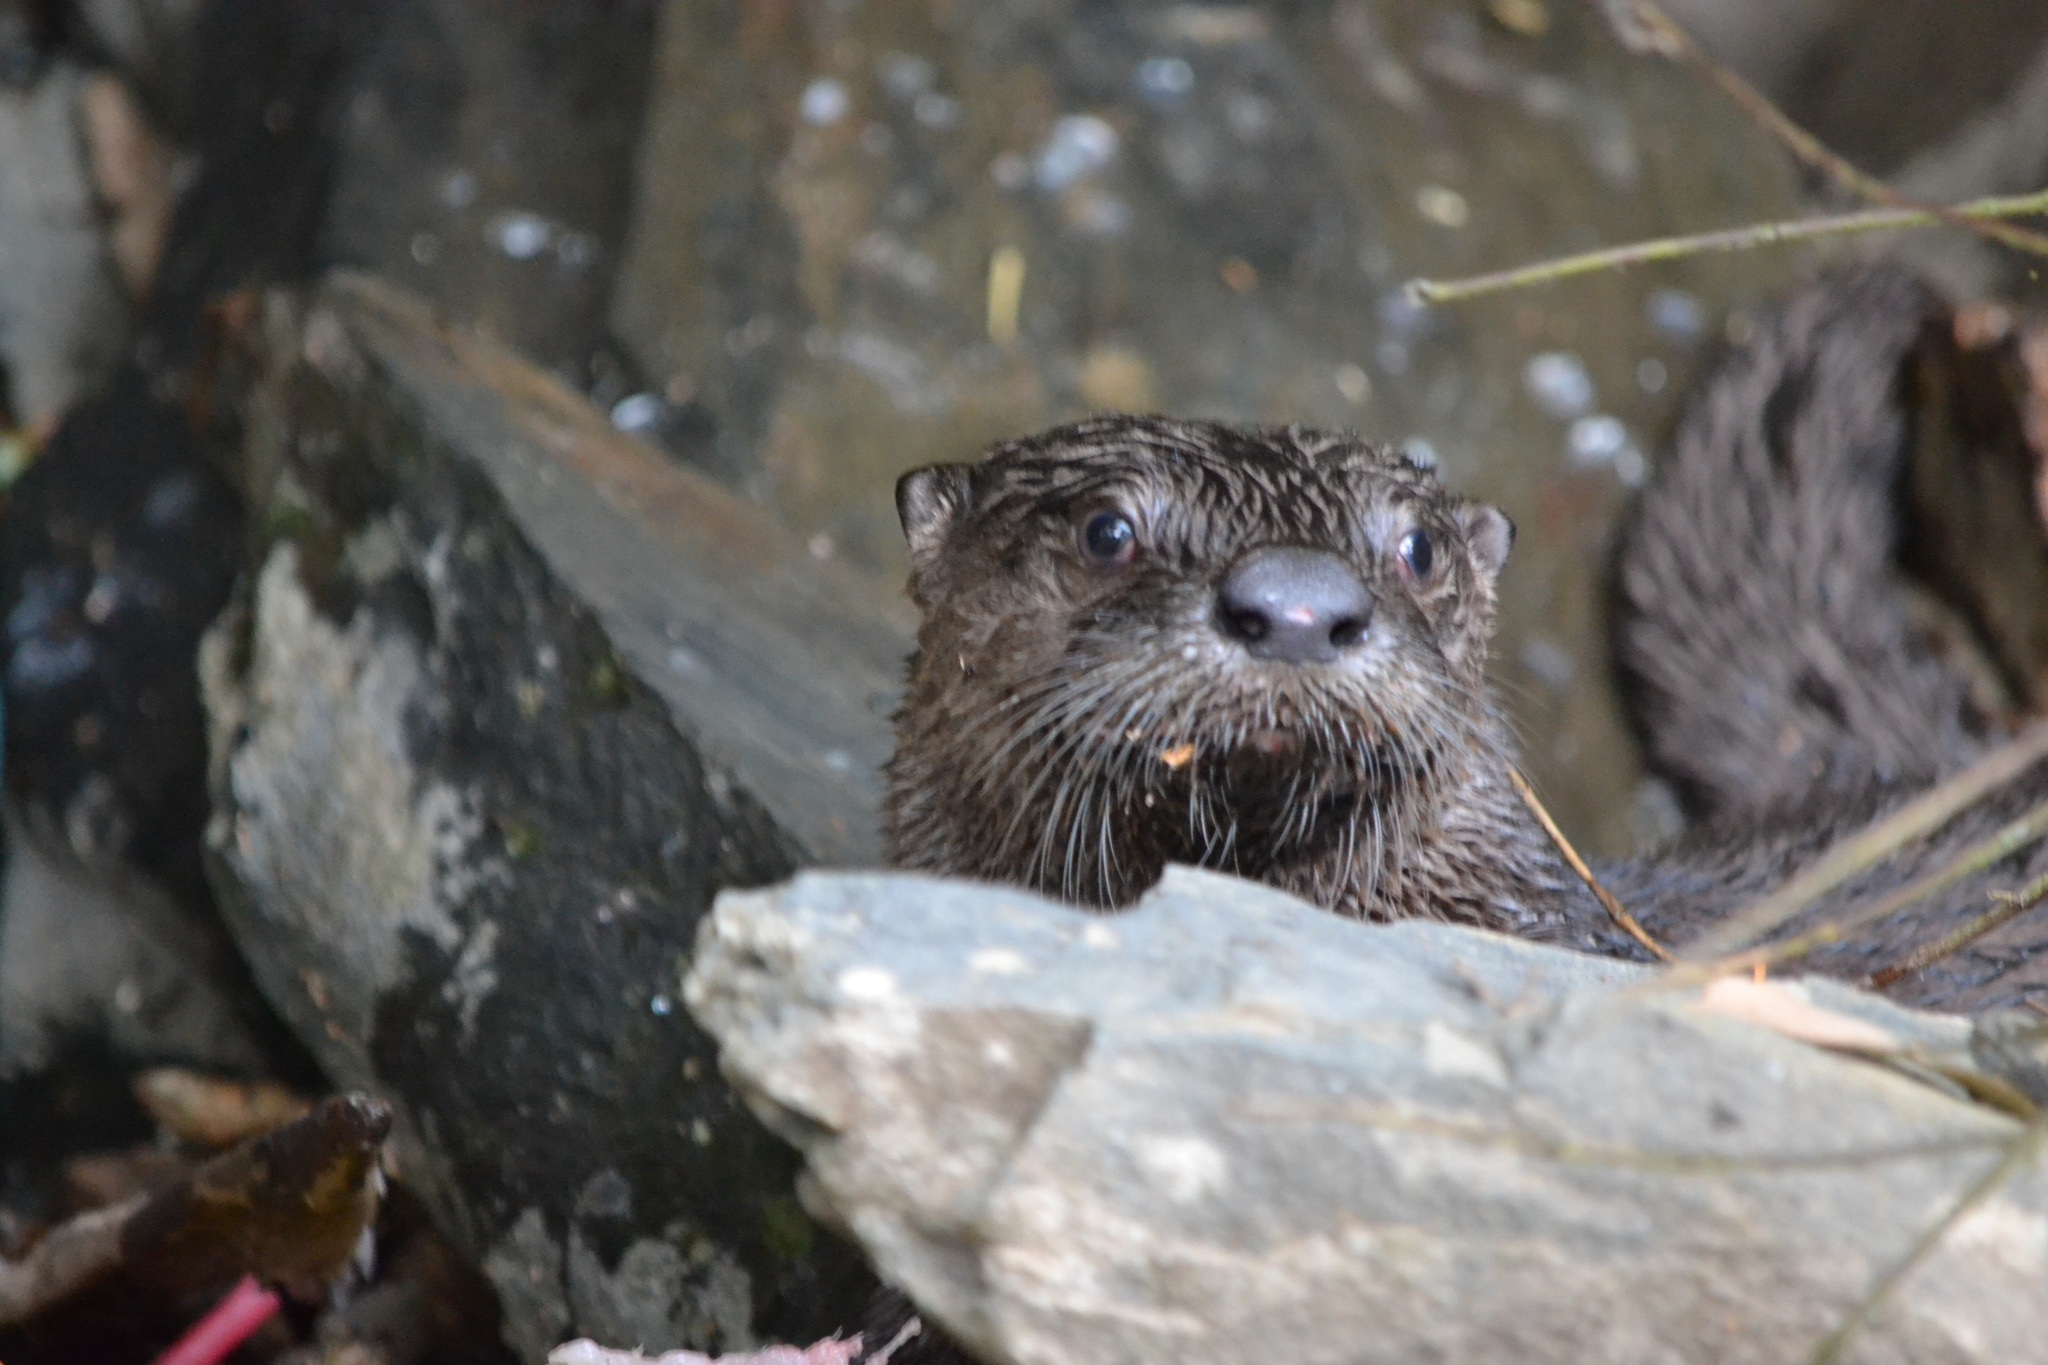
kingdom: Animalia
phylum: Chordata
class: Mammalia
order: Carnivora
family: Mustelidae
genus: Lontra
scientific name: Lontra canadensis
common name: North american river otter
